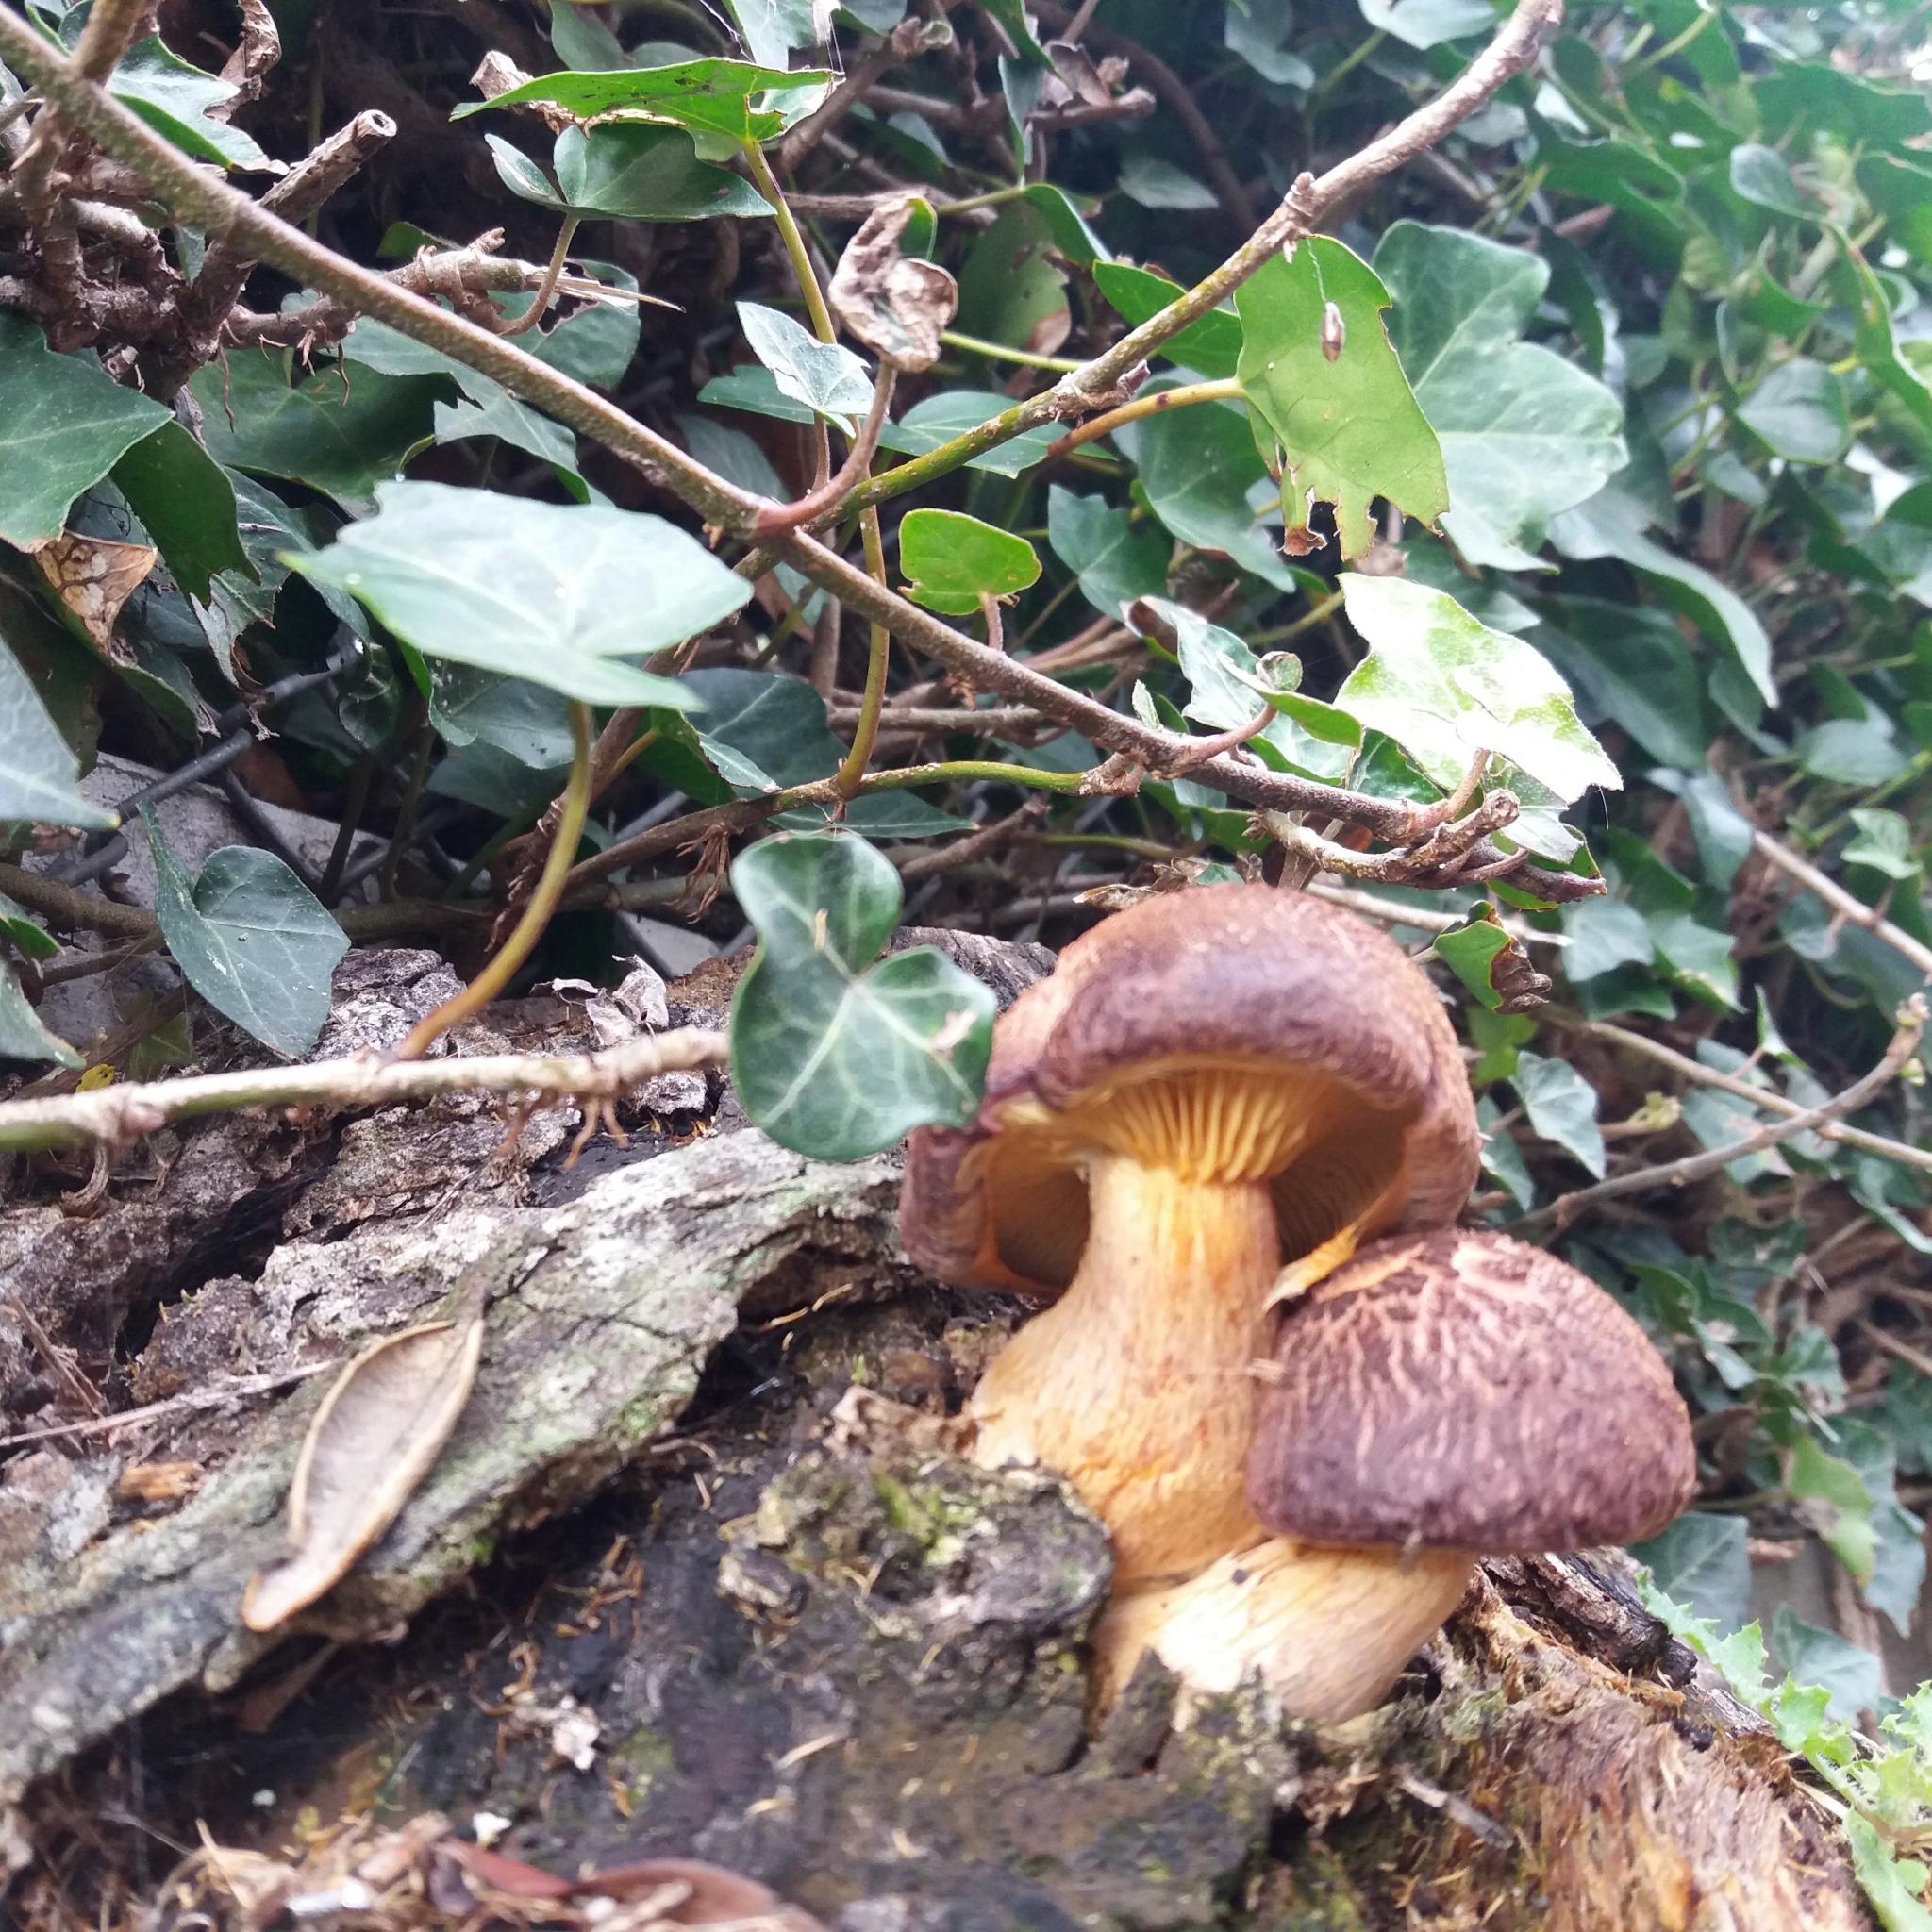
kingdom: Fungi
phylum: Basidiomycota
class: Agaricomycetes
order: Agaricales
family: Hymenogastraceae
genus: Gymnopilus
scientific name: Gymnopilus purpuratus
